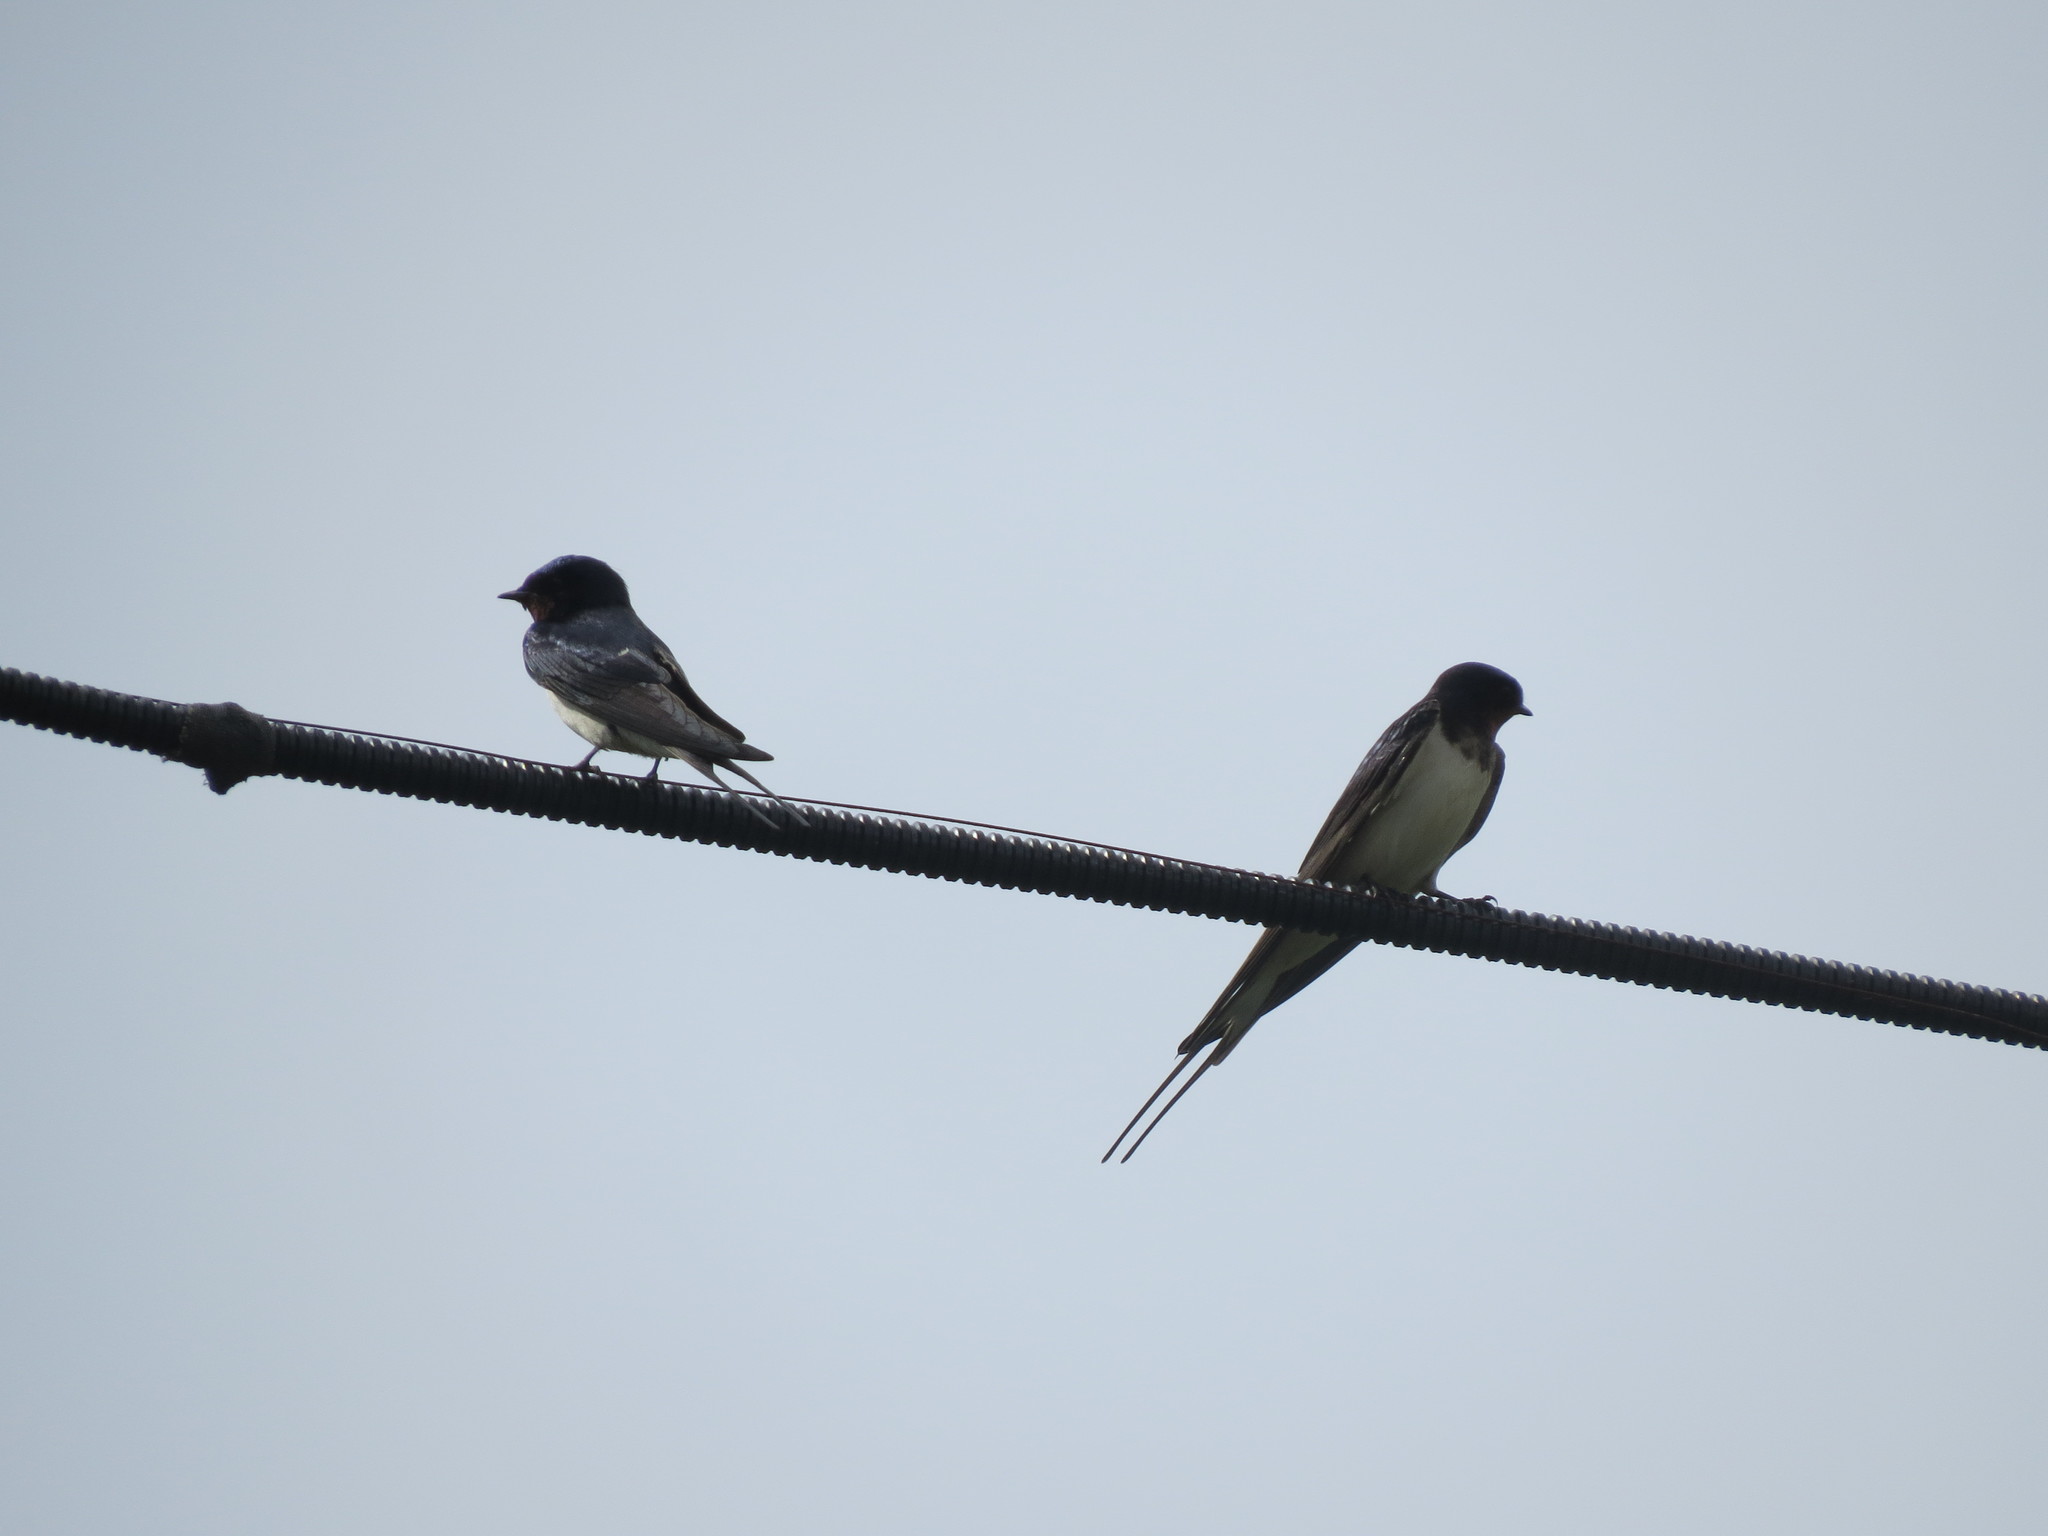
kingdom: Animalia
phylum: Chordata
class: Aves
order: Passeriformes
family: Hirundinidae
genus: Hirundo
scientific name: Hirundo rustica
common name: Barn swallow
